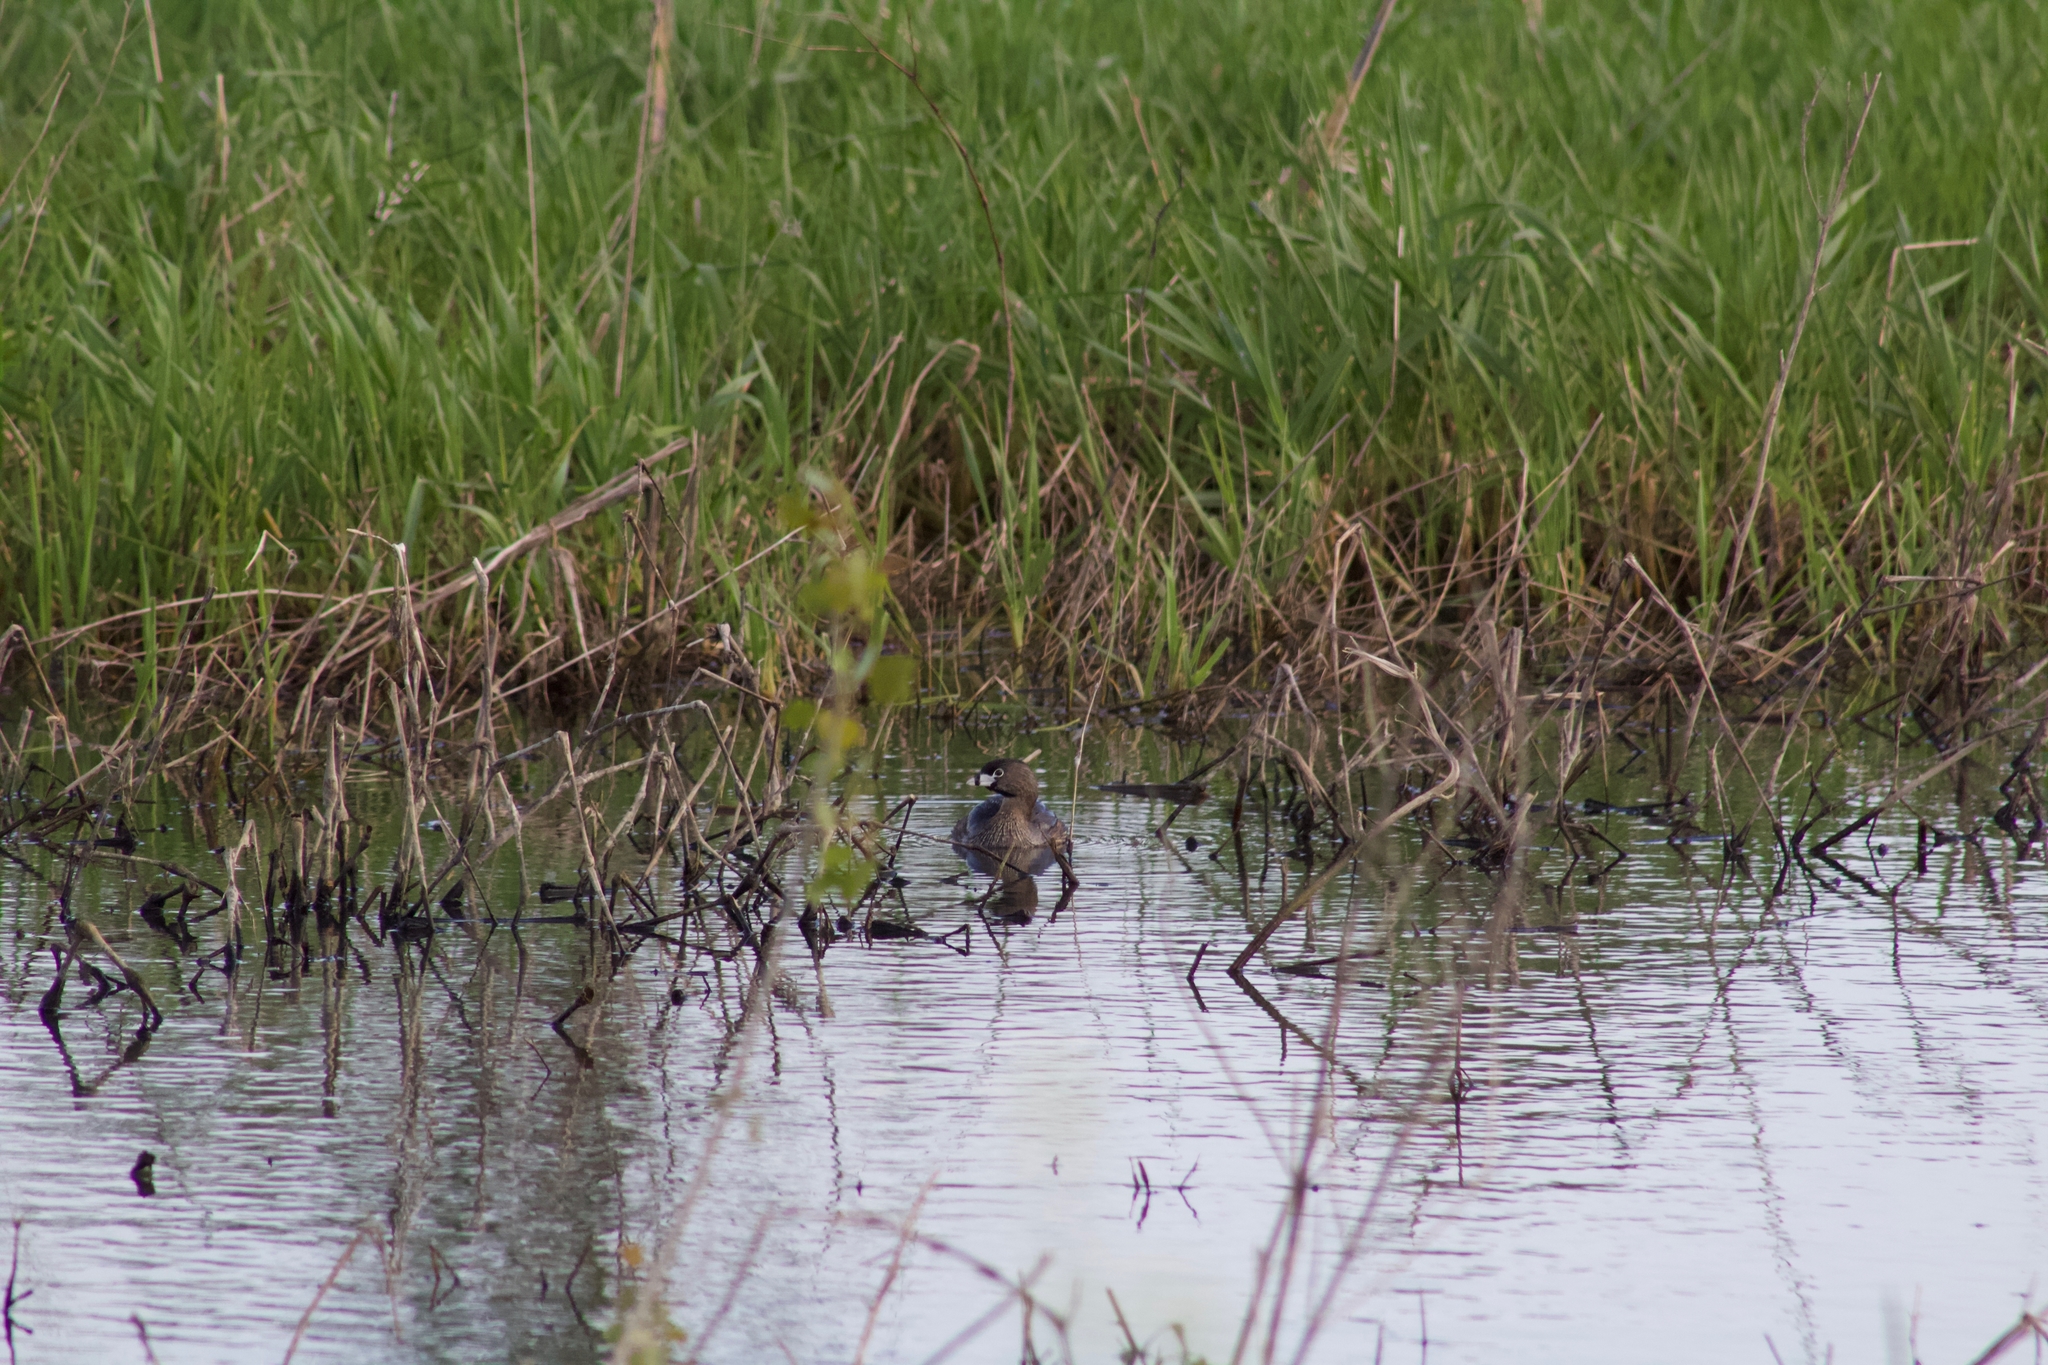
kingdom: Animalia
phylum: Chordata
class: Aves
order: Podicipediformes
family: Podicipedidae
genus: Podilymbus
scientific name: Podilymbus podiceps
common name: Pied-billed grebe
